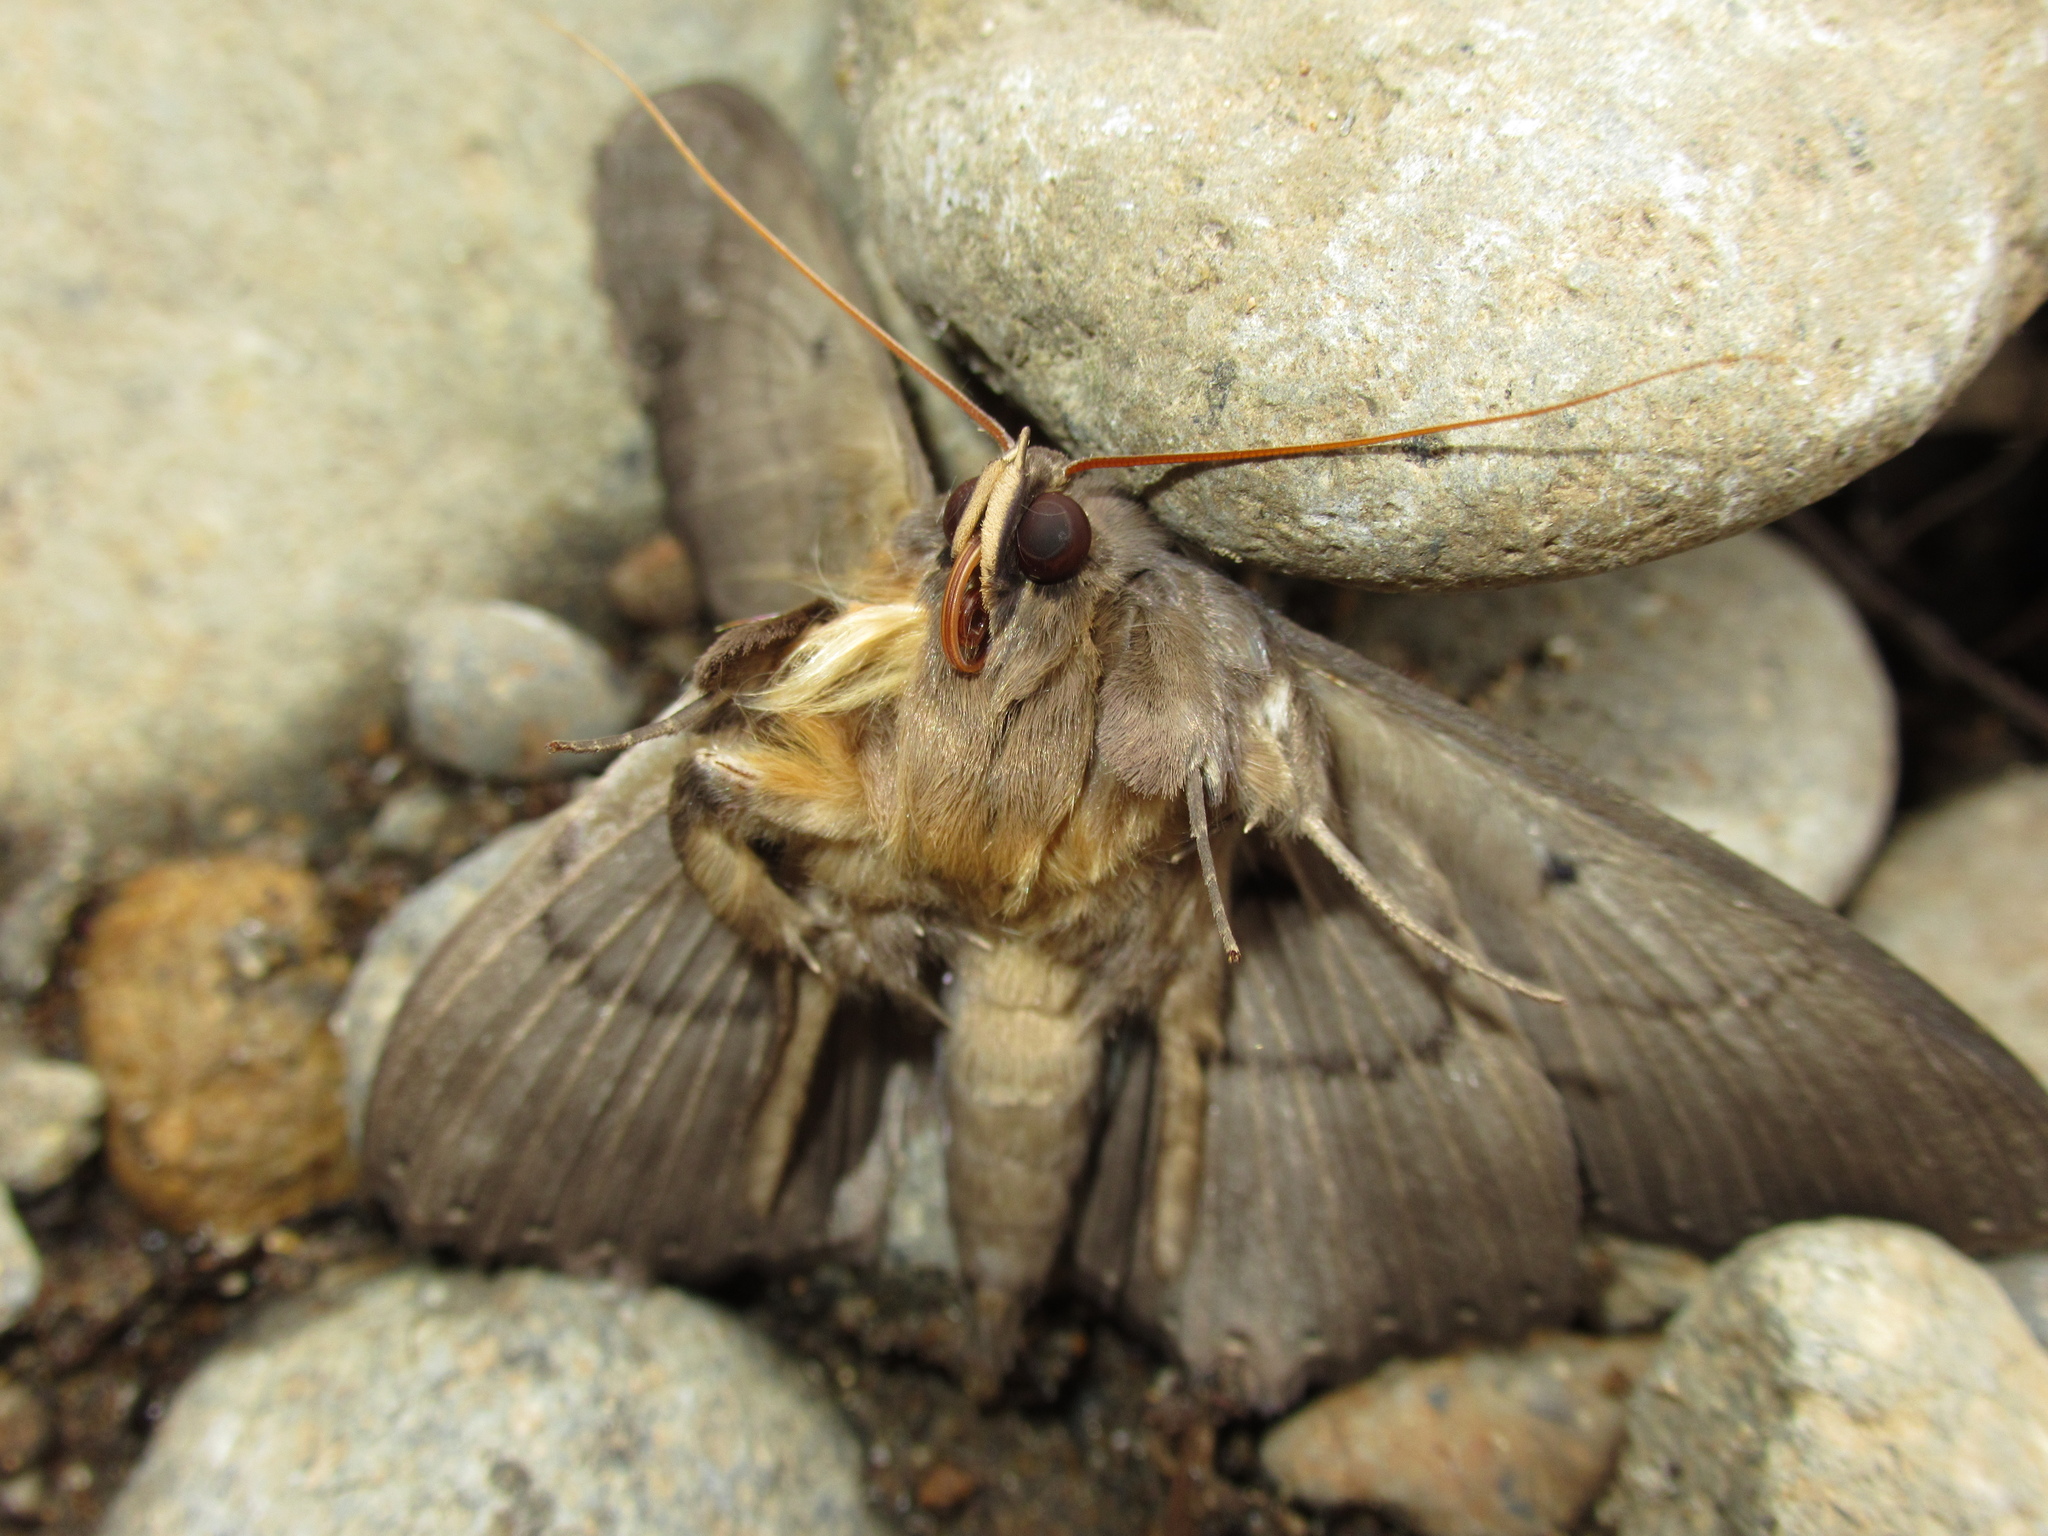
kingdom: Animalia
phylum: Arthropoda
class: Insecta
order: Lepidoptera
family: Erebidae
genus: Dasypodia
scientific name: Dasypodia cymatodes
